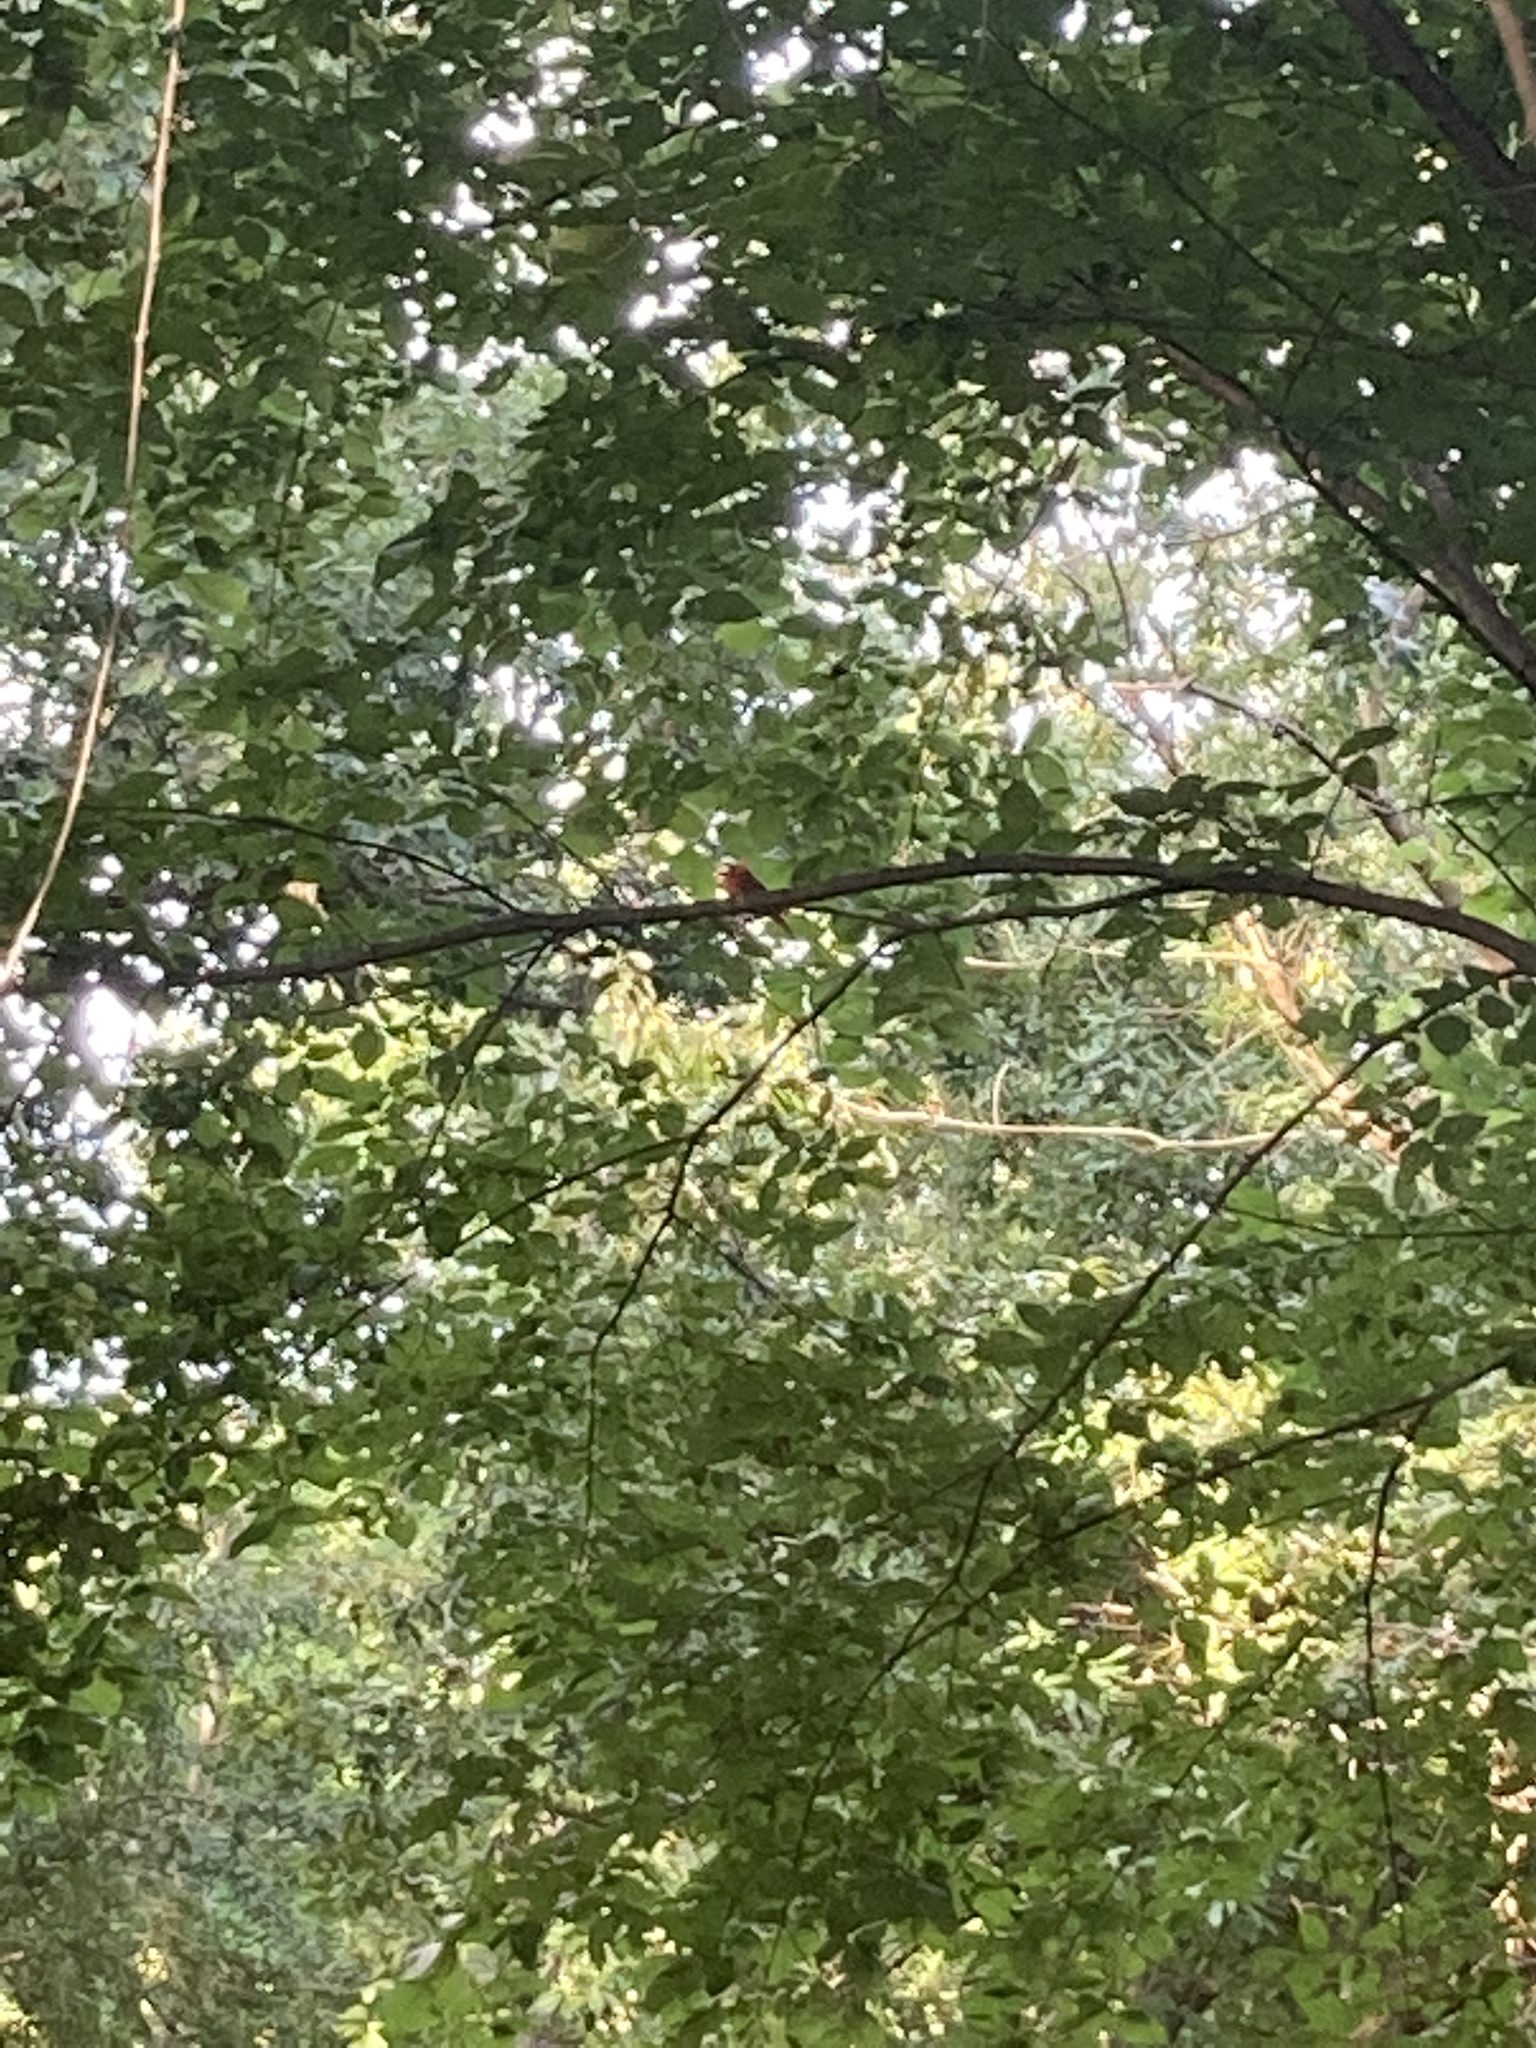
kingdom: Animalia
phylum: Chordata
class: Aves
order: Passeriformes
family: Cardinalidae
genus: Cardinalis
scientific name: Cardinalis cardinalis
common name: Northern cardinal
